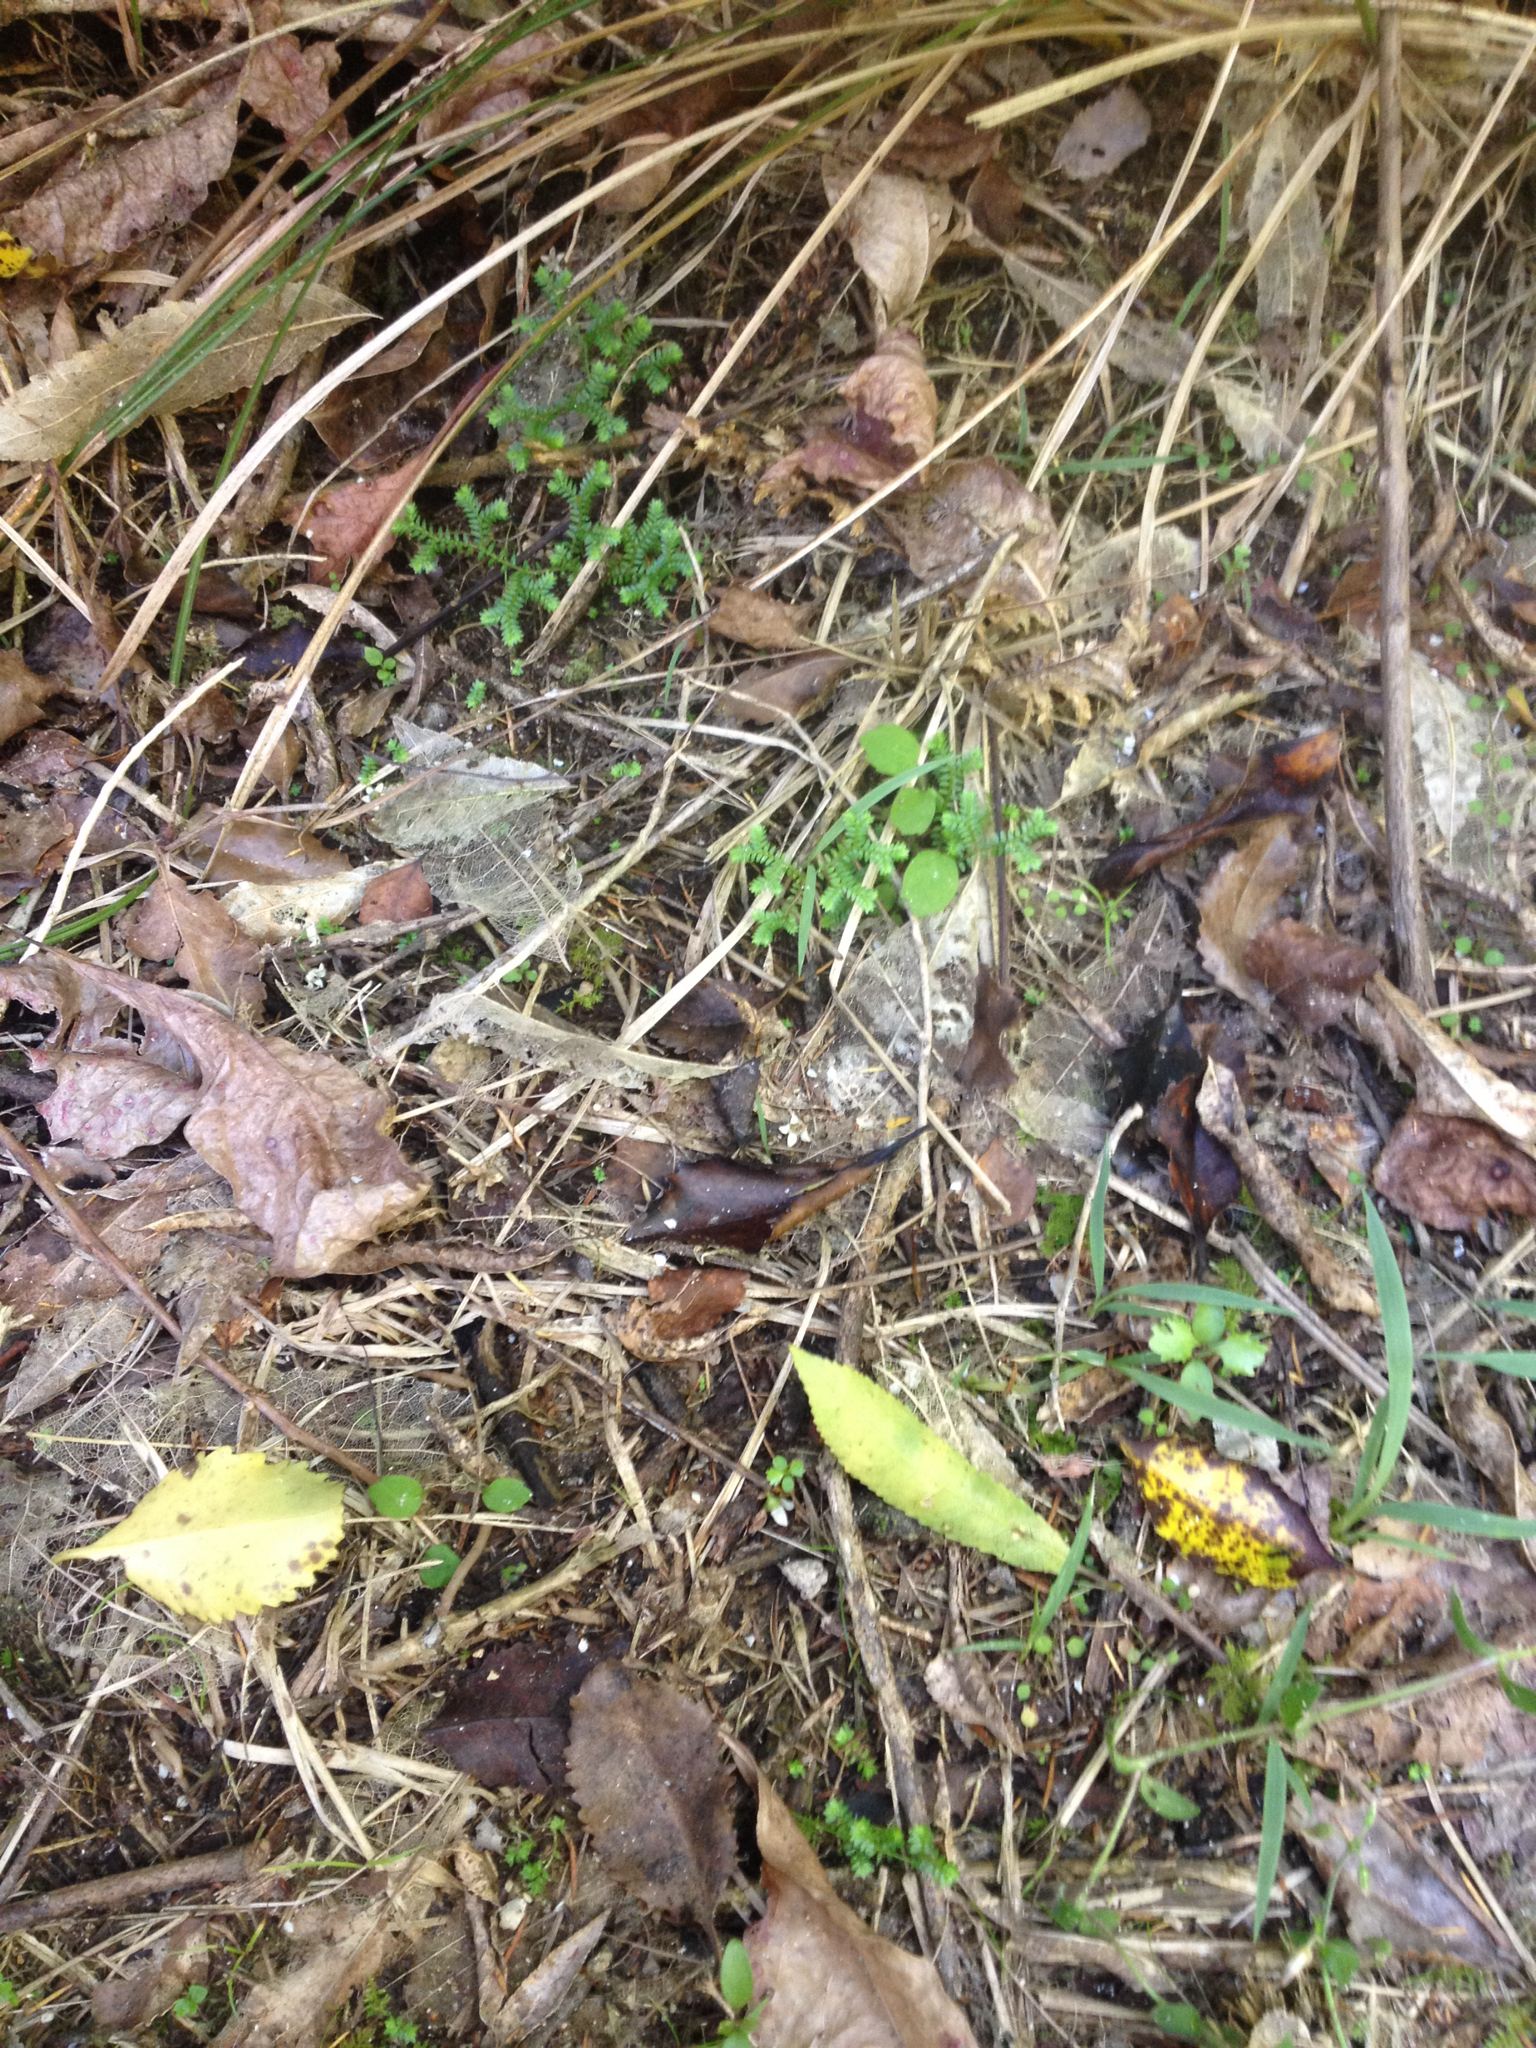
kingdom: Plantae
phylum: Tracheophyta
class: Lycopodiopsida
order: Selaginellales
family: Selaginellaceae
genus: Selaginella
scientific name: Selaginella kraussiana
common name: Krauss' spikemoss
